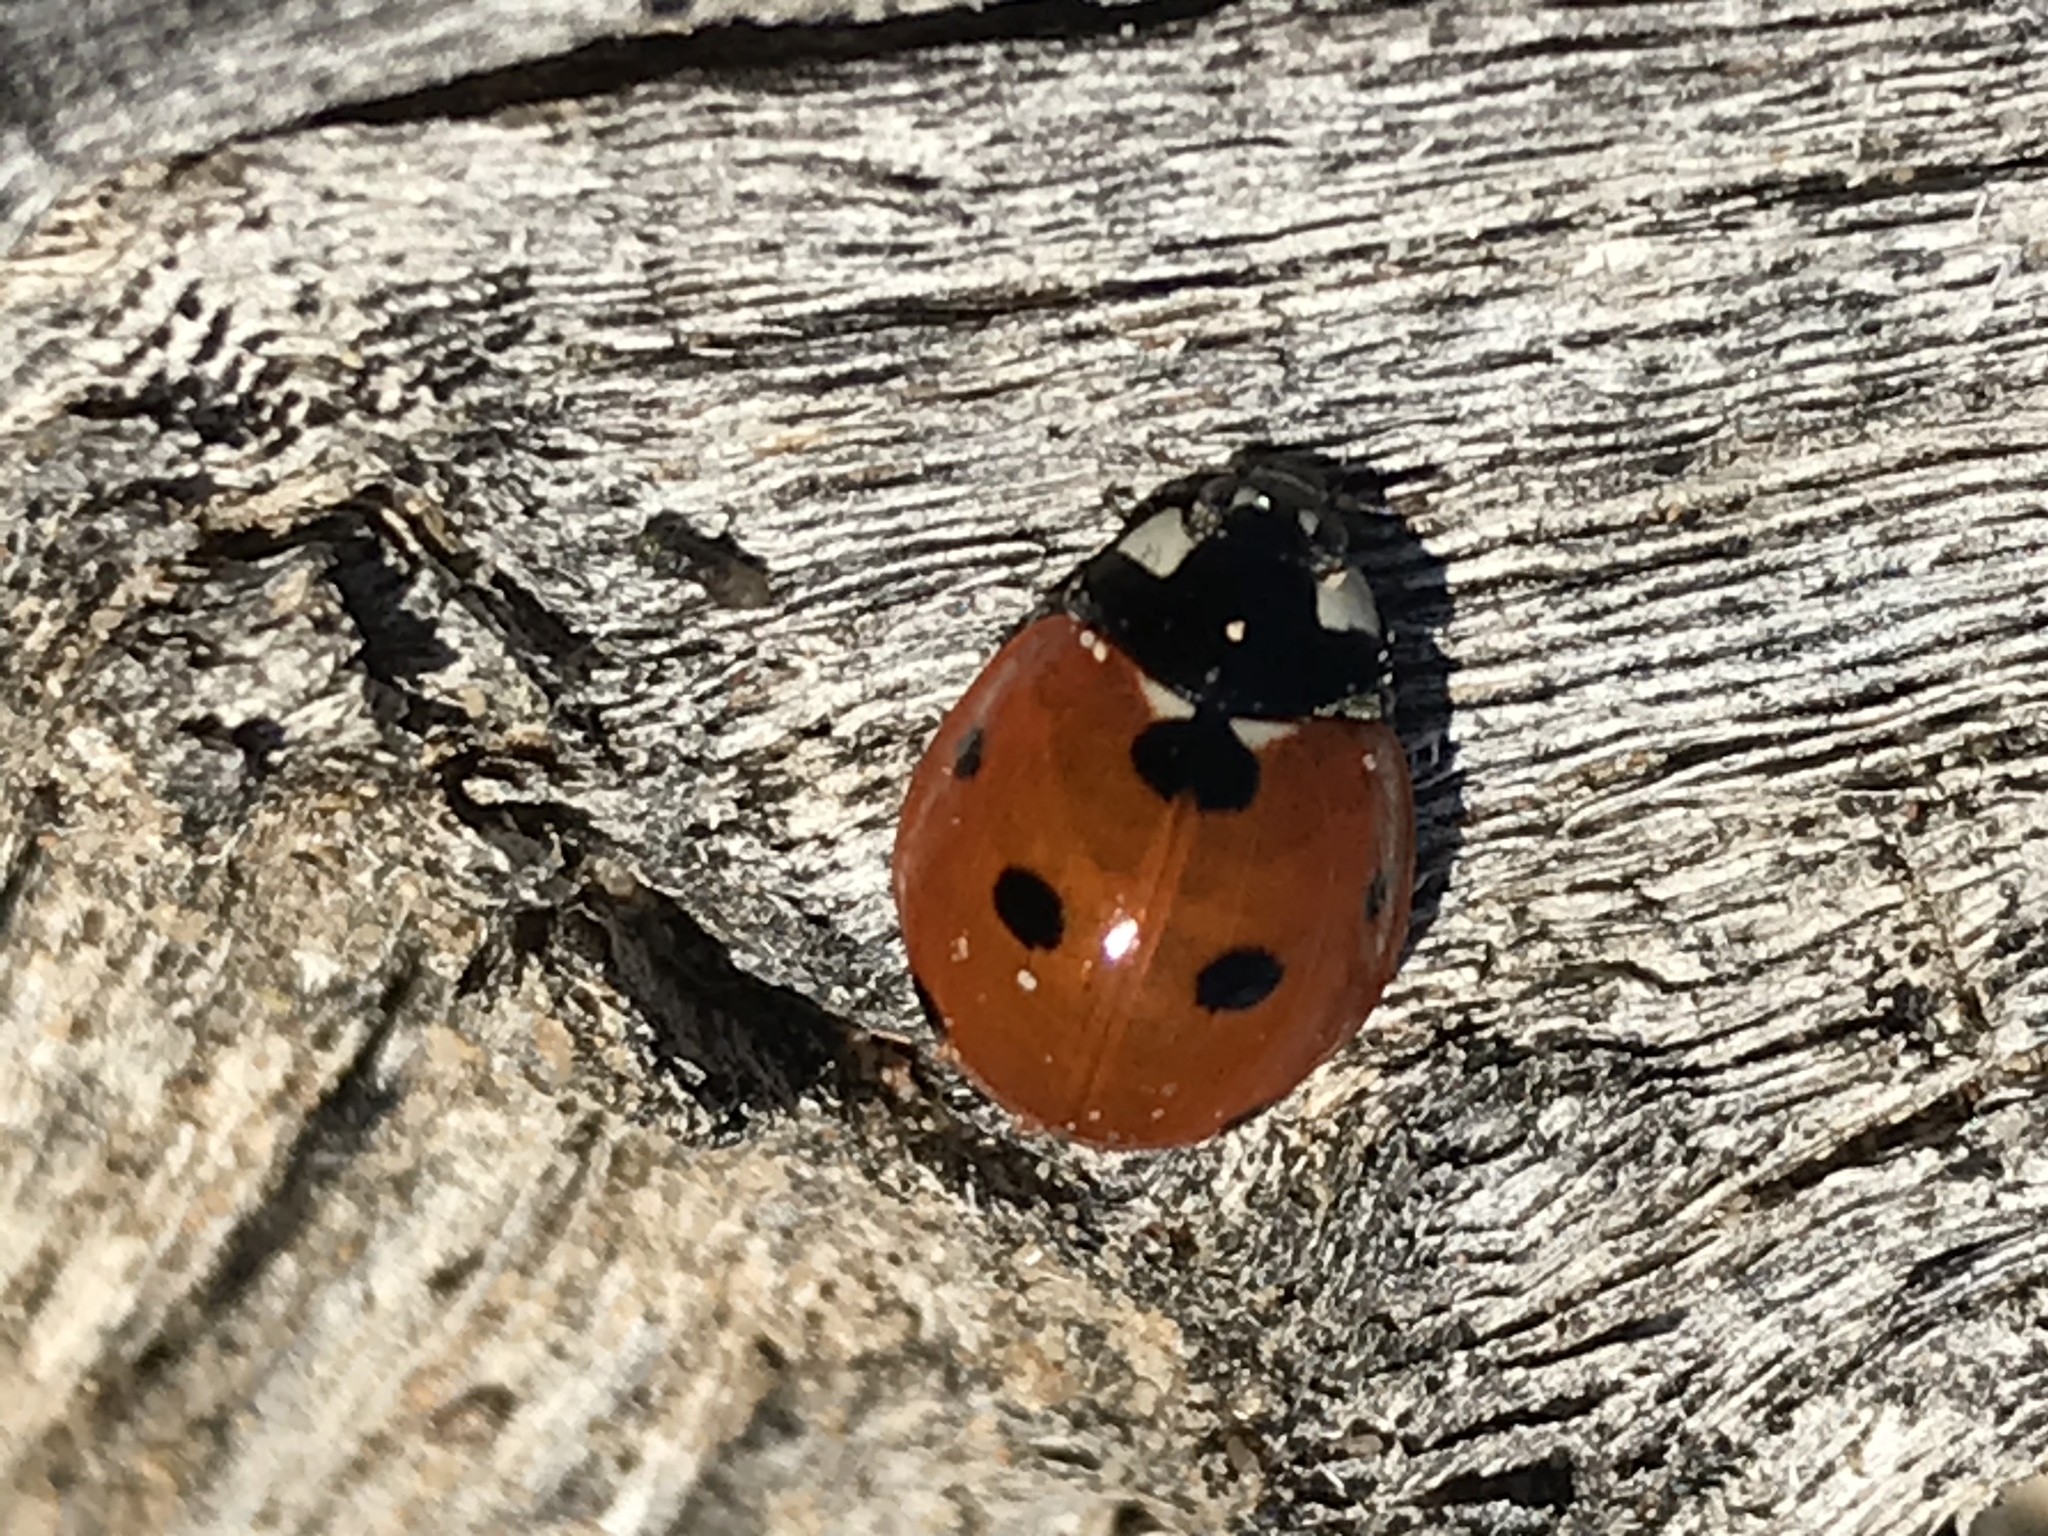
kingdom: Animalia
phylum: Arthropoda
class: Insecta
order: Coleoptera
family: Coccinellidae
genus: Coccinella
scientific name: Coccinella septempunctata
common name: Sevenspotted lady beetle
